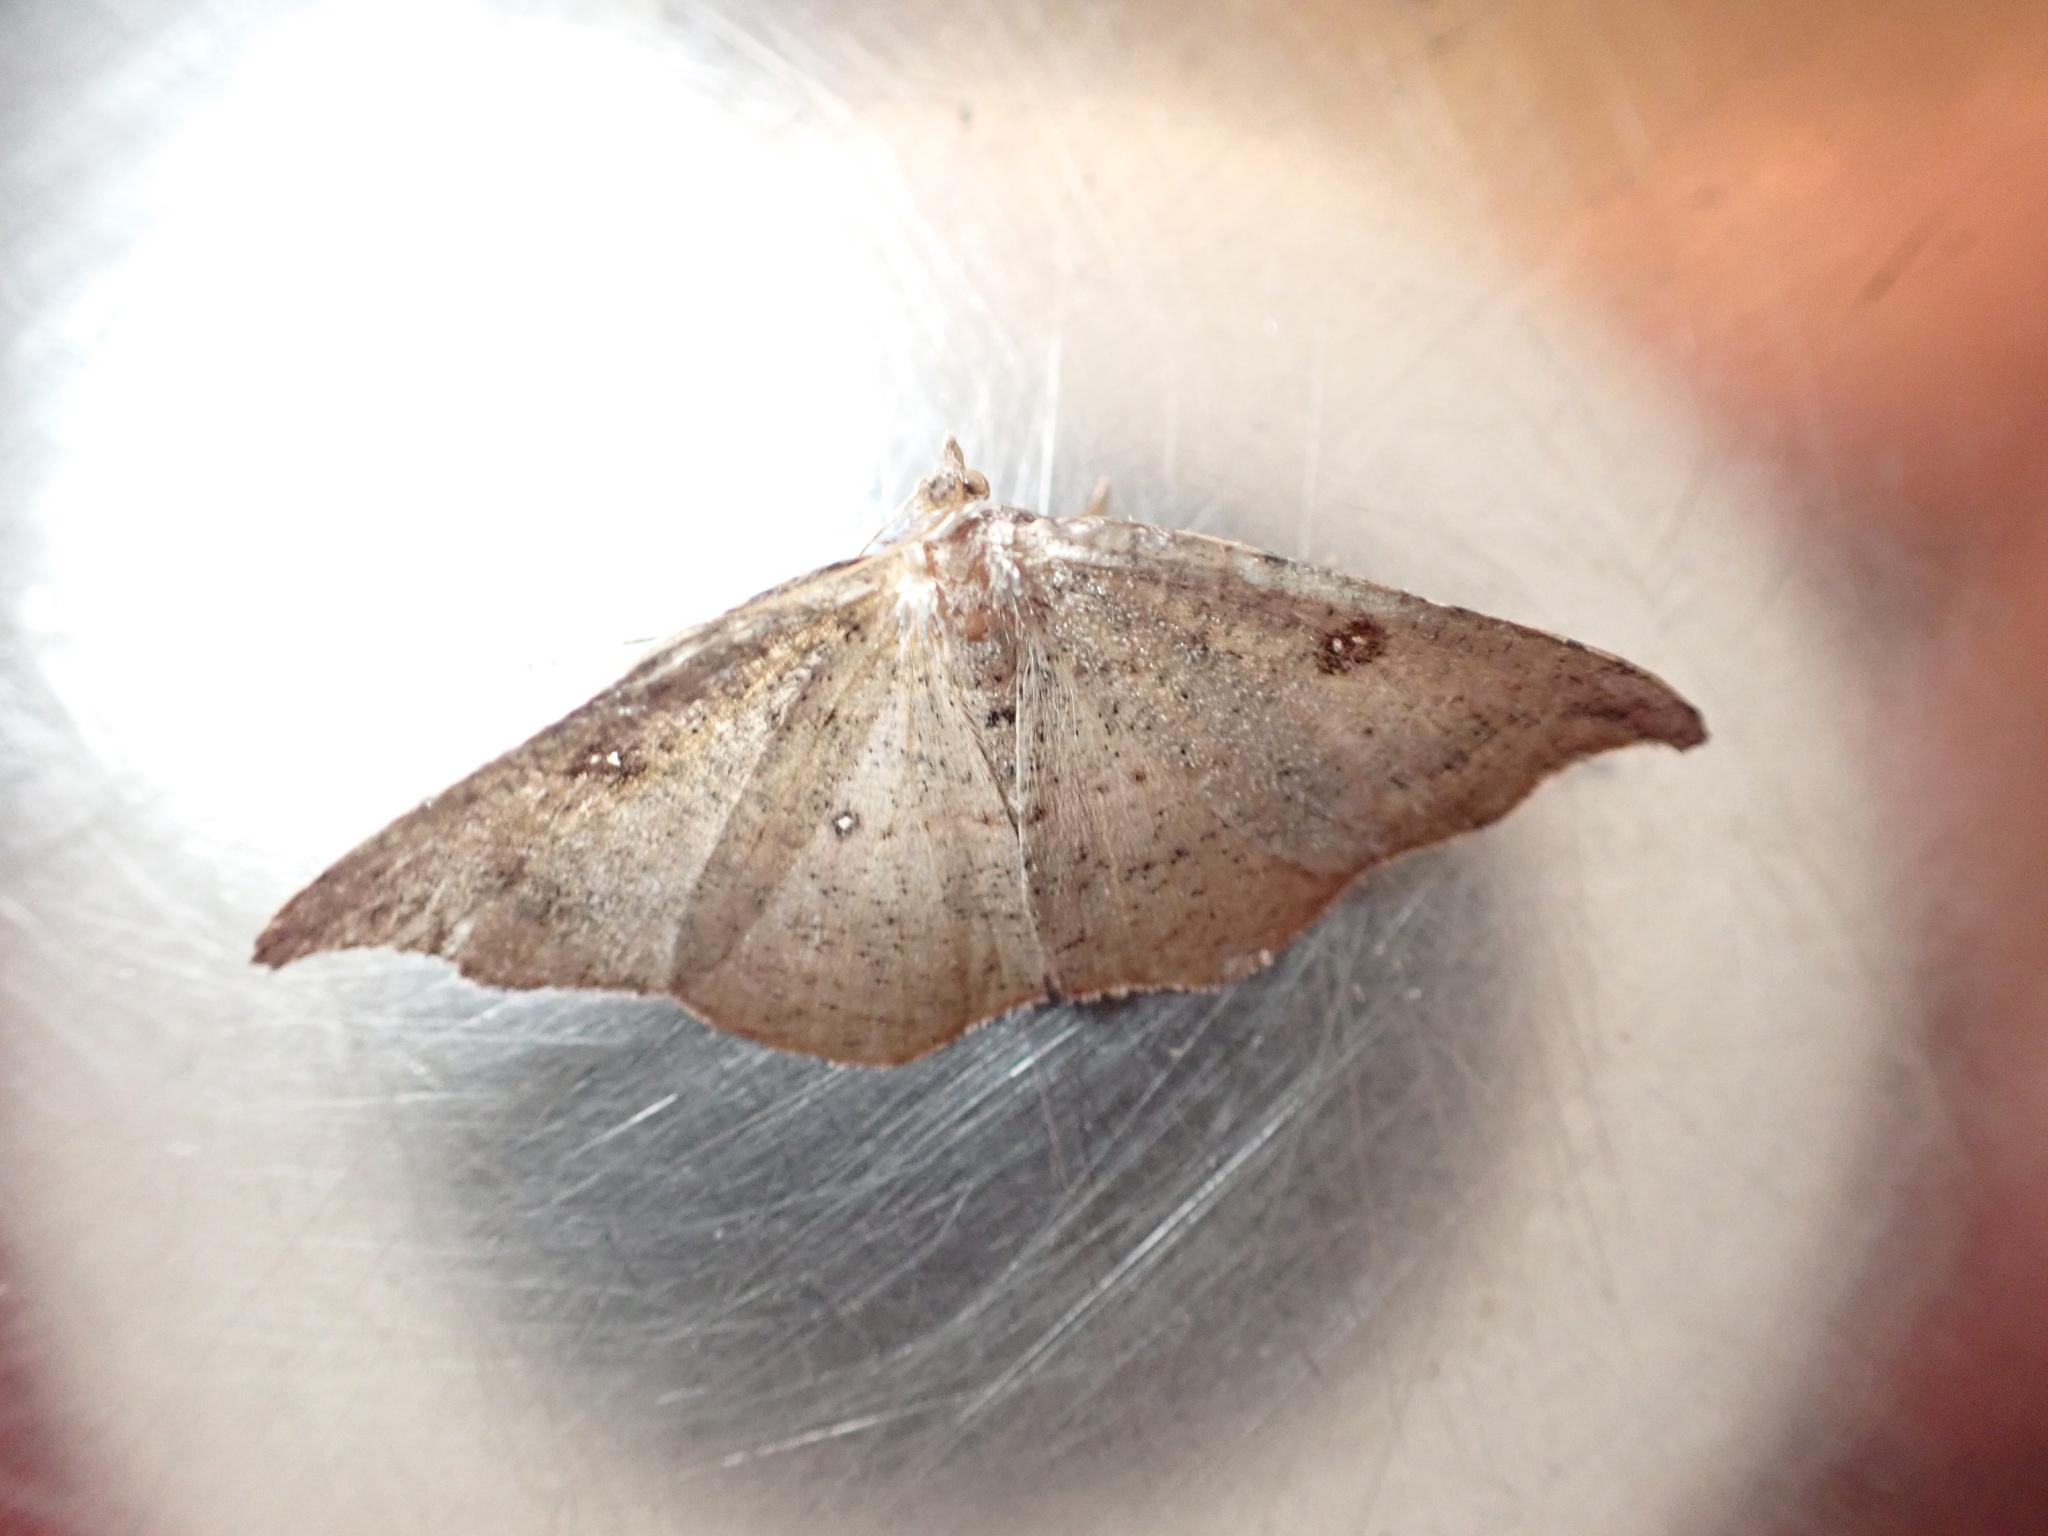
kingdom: Animalia
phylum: Arthropoda
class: Insecta
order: Lepidoptera
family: Geometridae
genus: Sarisa
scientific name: Sarisa muriferata
